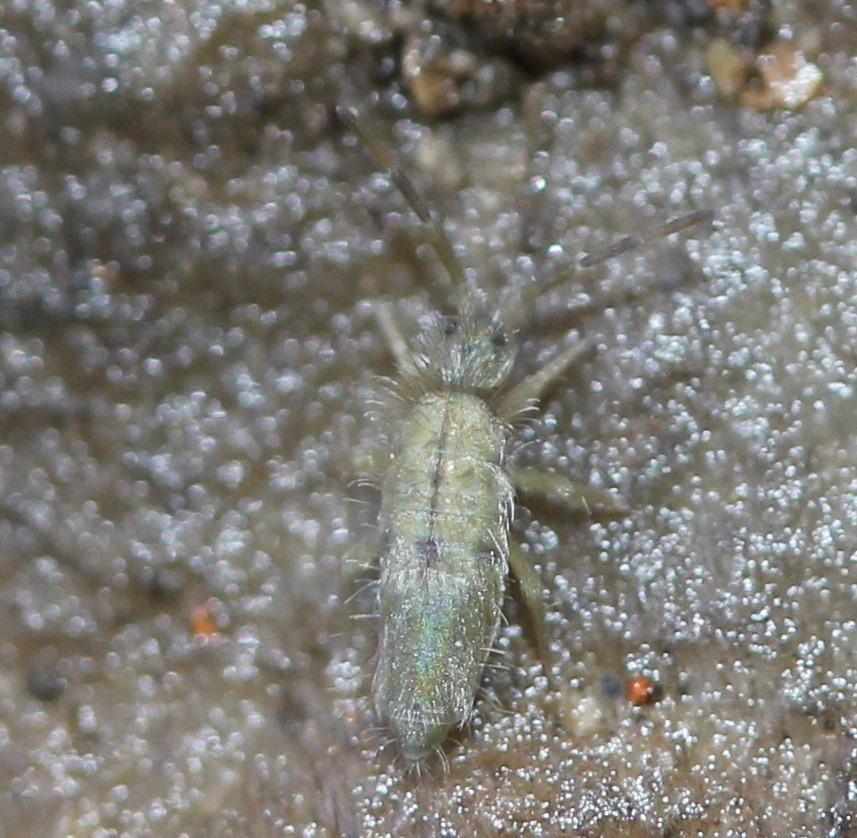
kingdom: Animalia
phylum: Arthropoda
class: Collembola
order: Entomobryomorpha
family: Entomobryidae
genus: Entomobrya
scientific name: Entomobrya unostrigata
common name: Springtail
